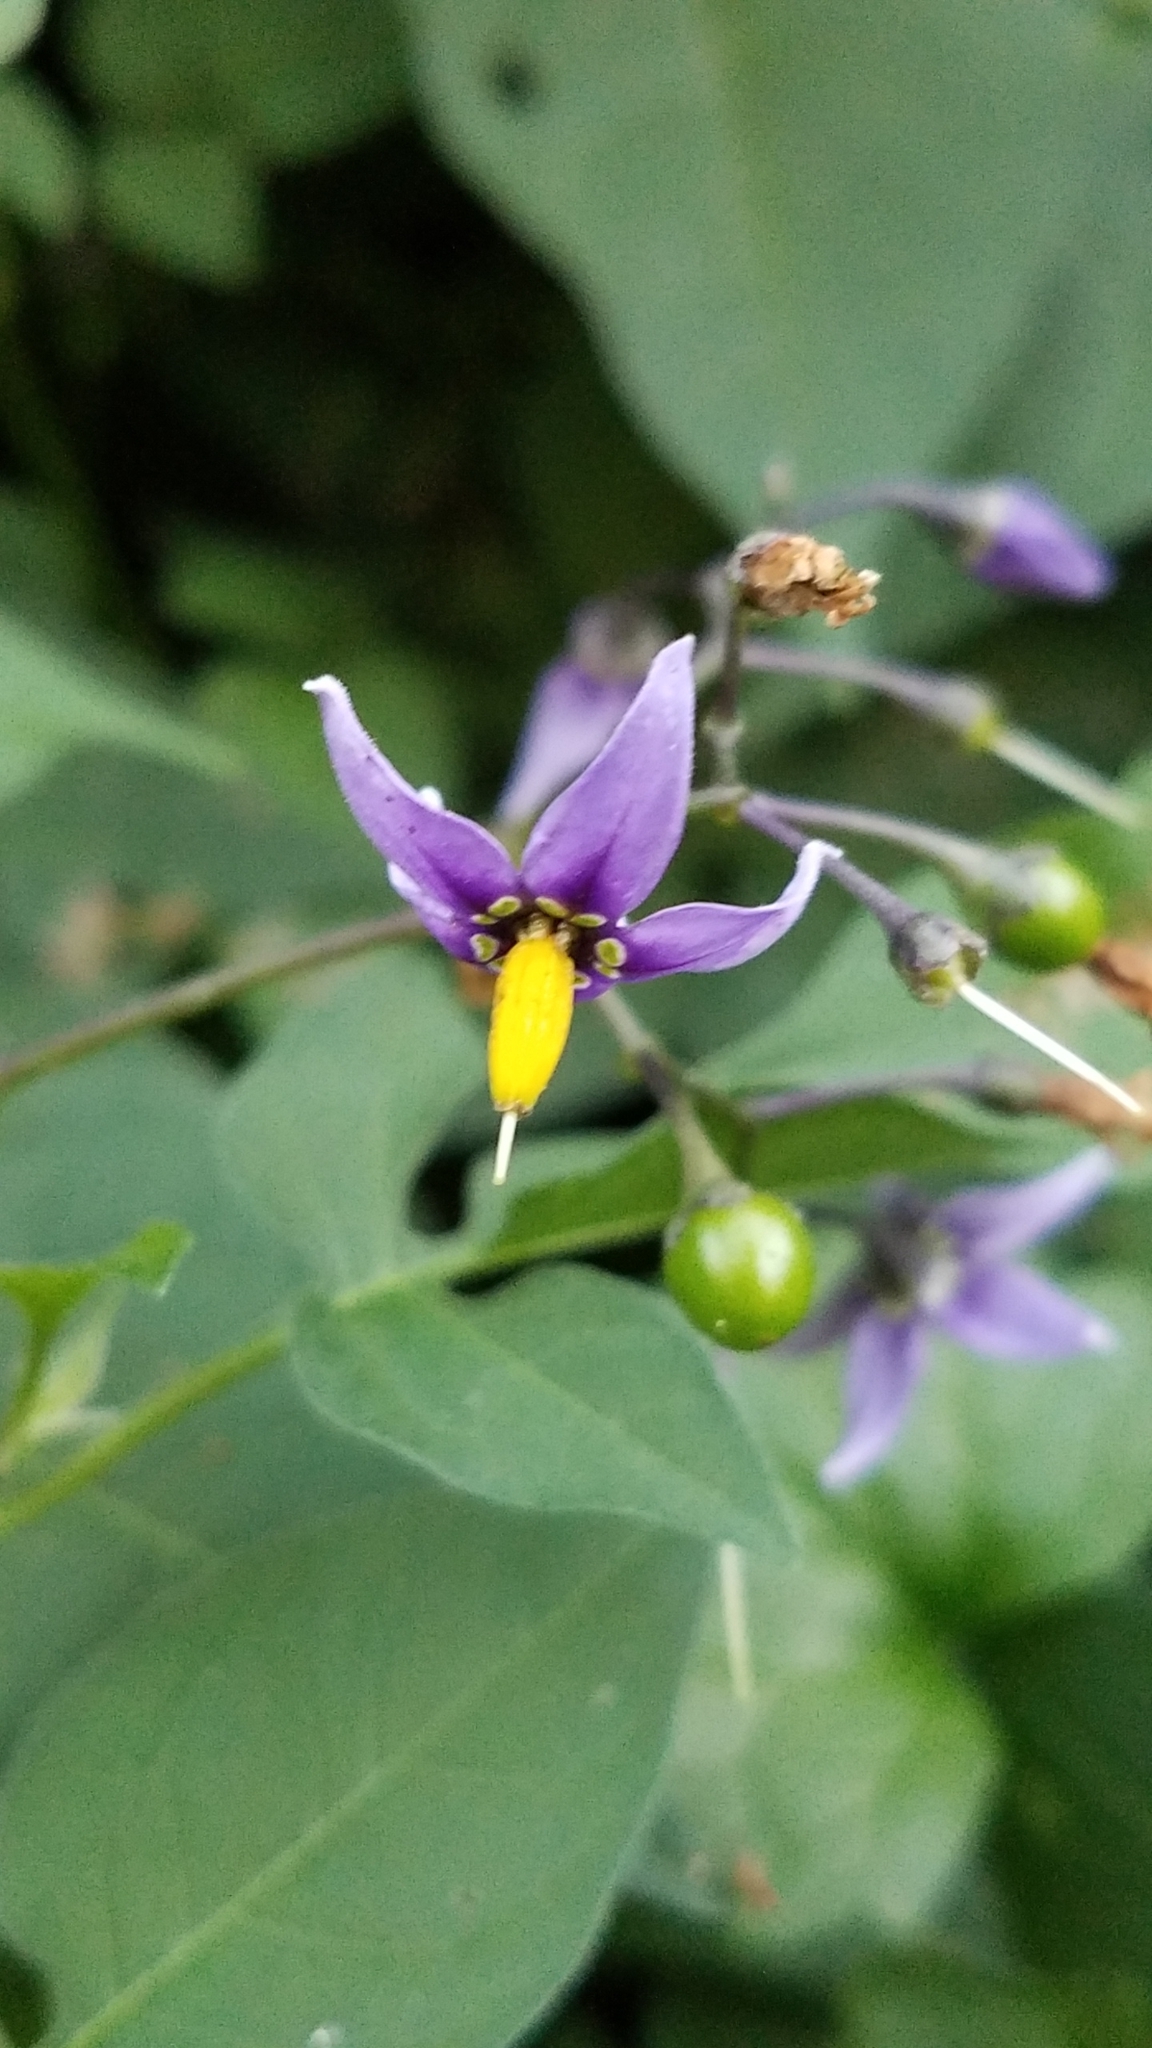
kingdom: Plantae
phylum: Tracheophyta
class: Magnoliopsida
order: Solanales
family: Solanaceae
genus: Solanum
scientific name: Solanum dulcamara
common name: Climbing nightshade
